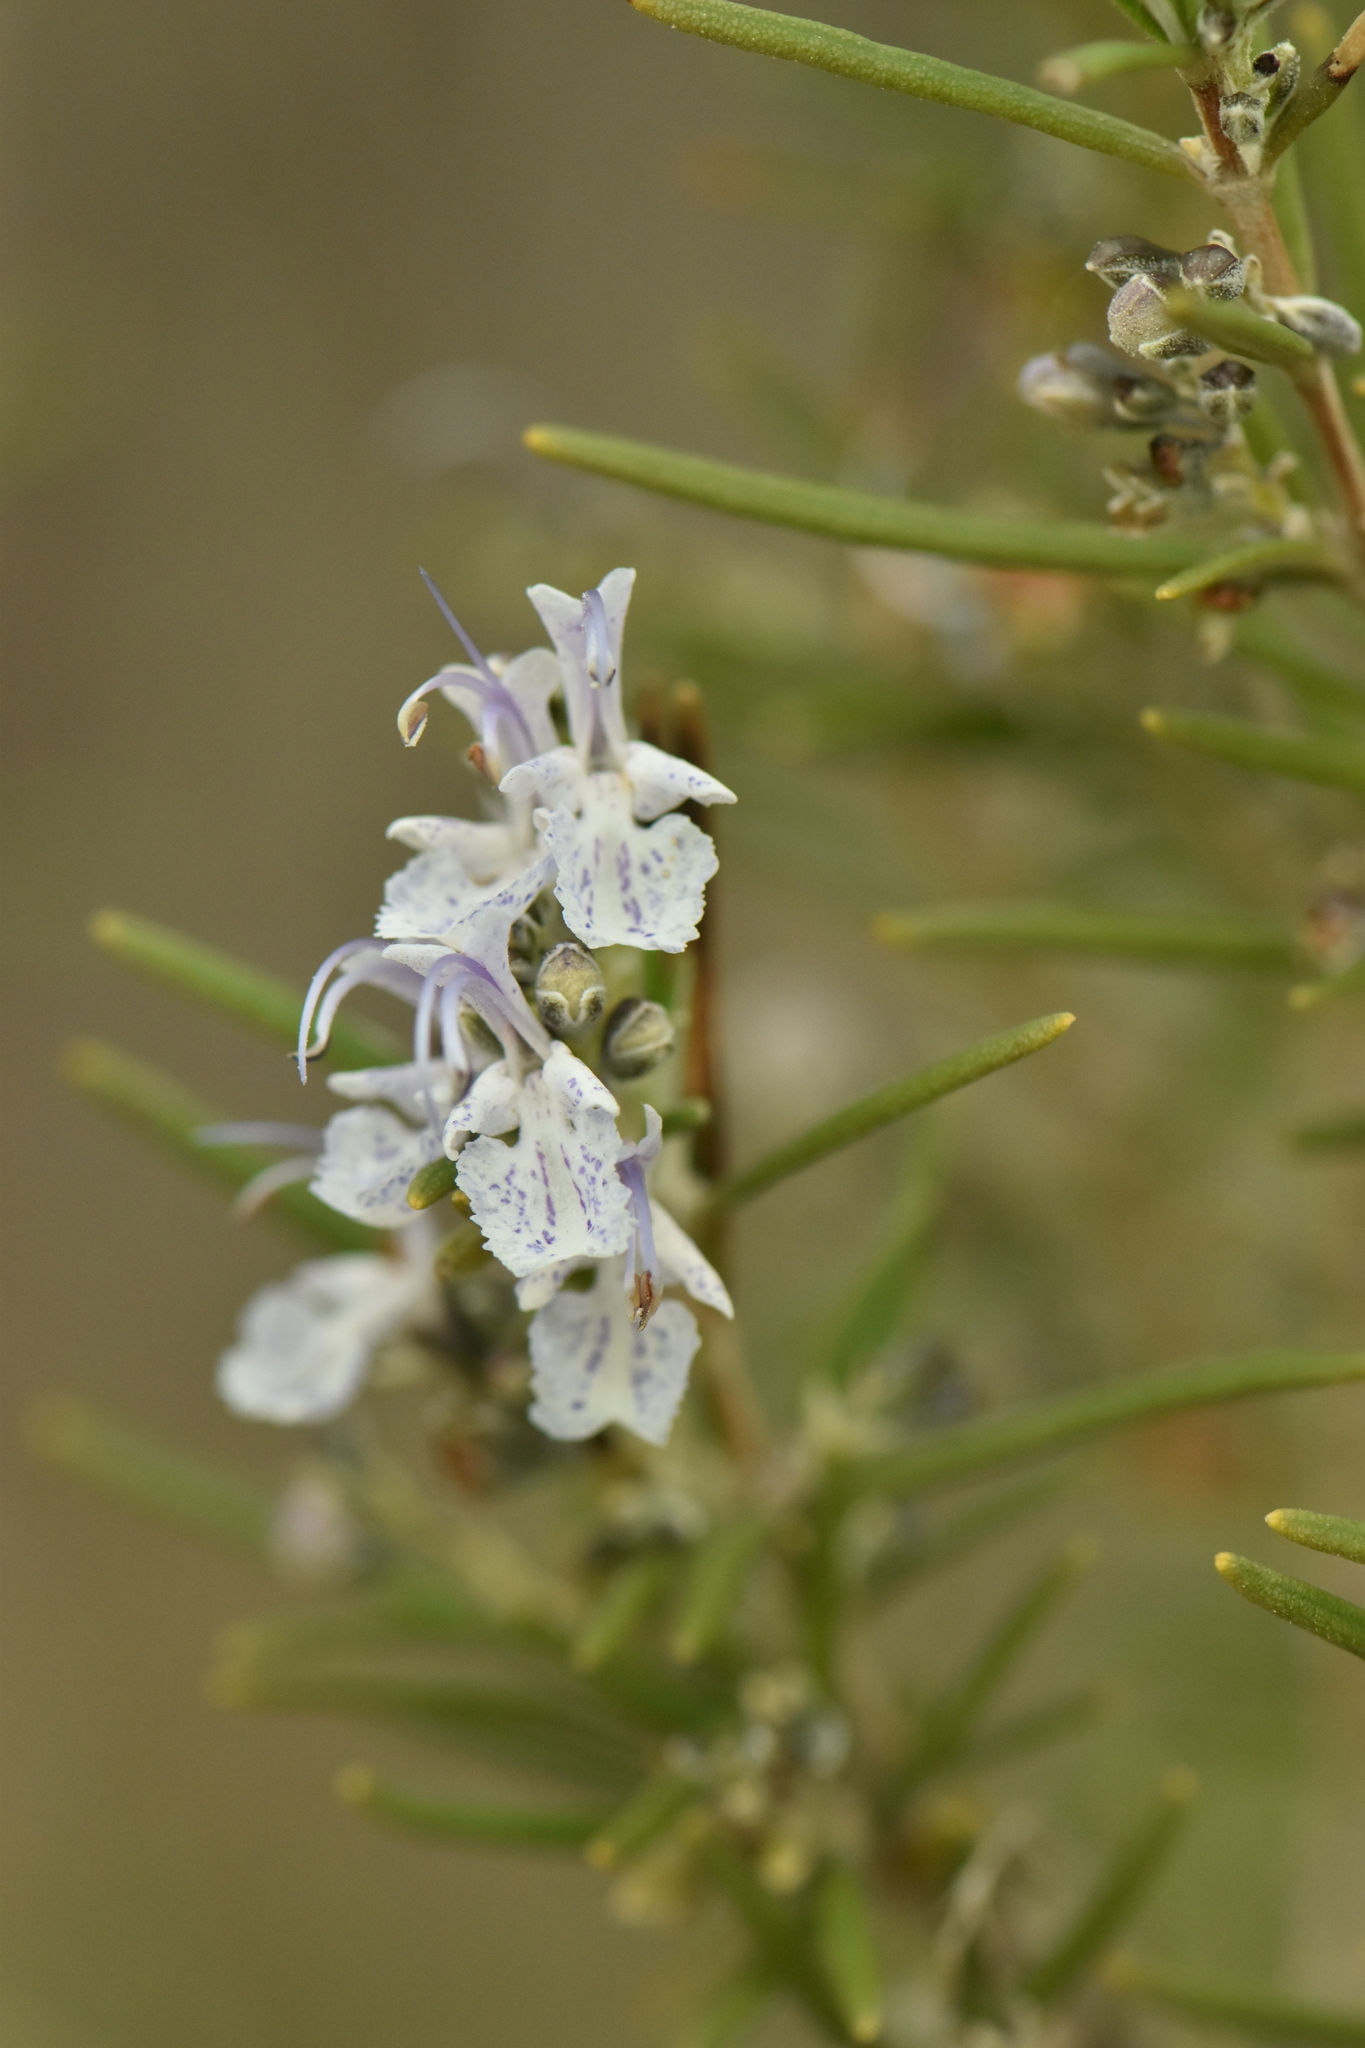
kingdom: Plantae
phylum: Tracheophyta
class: Magnoliopsida
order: Lamiales
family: Lamiaceae
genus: Salvia
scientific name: Salvia rosmarinus
